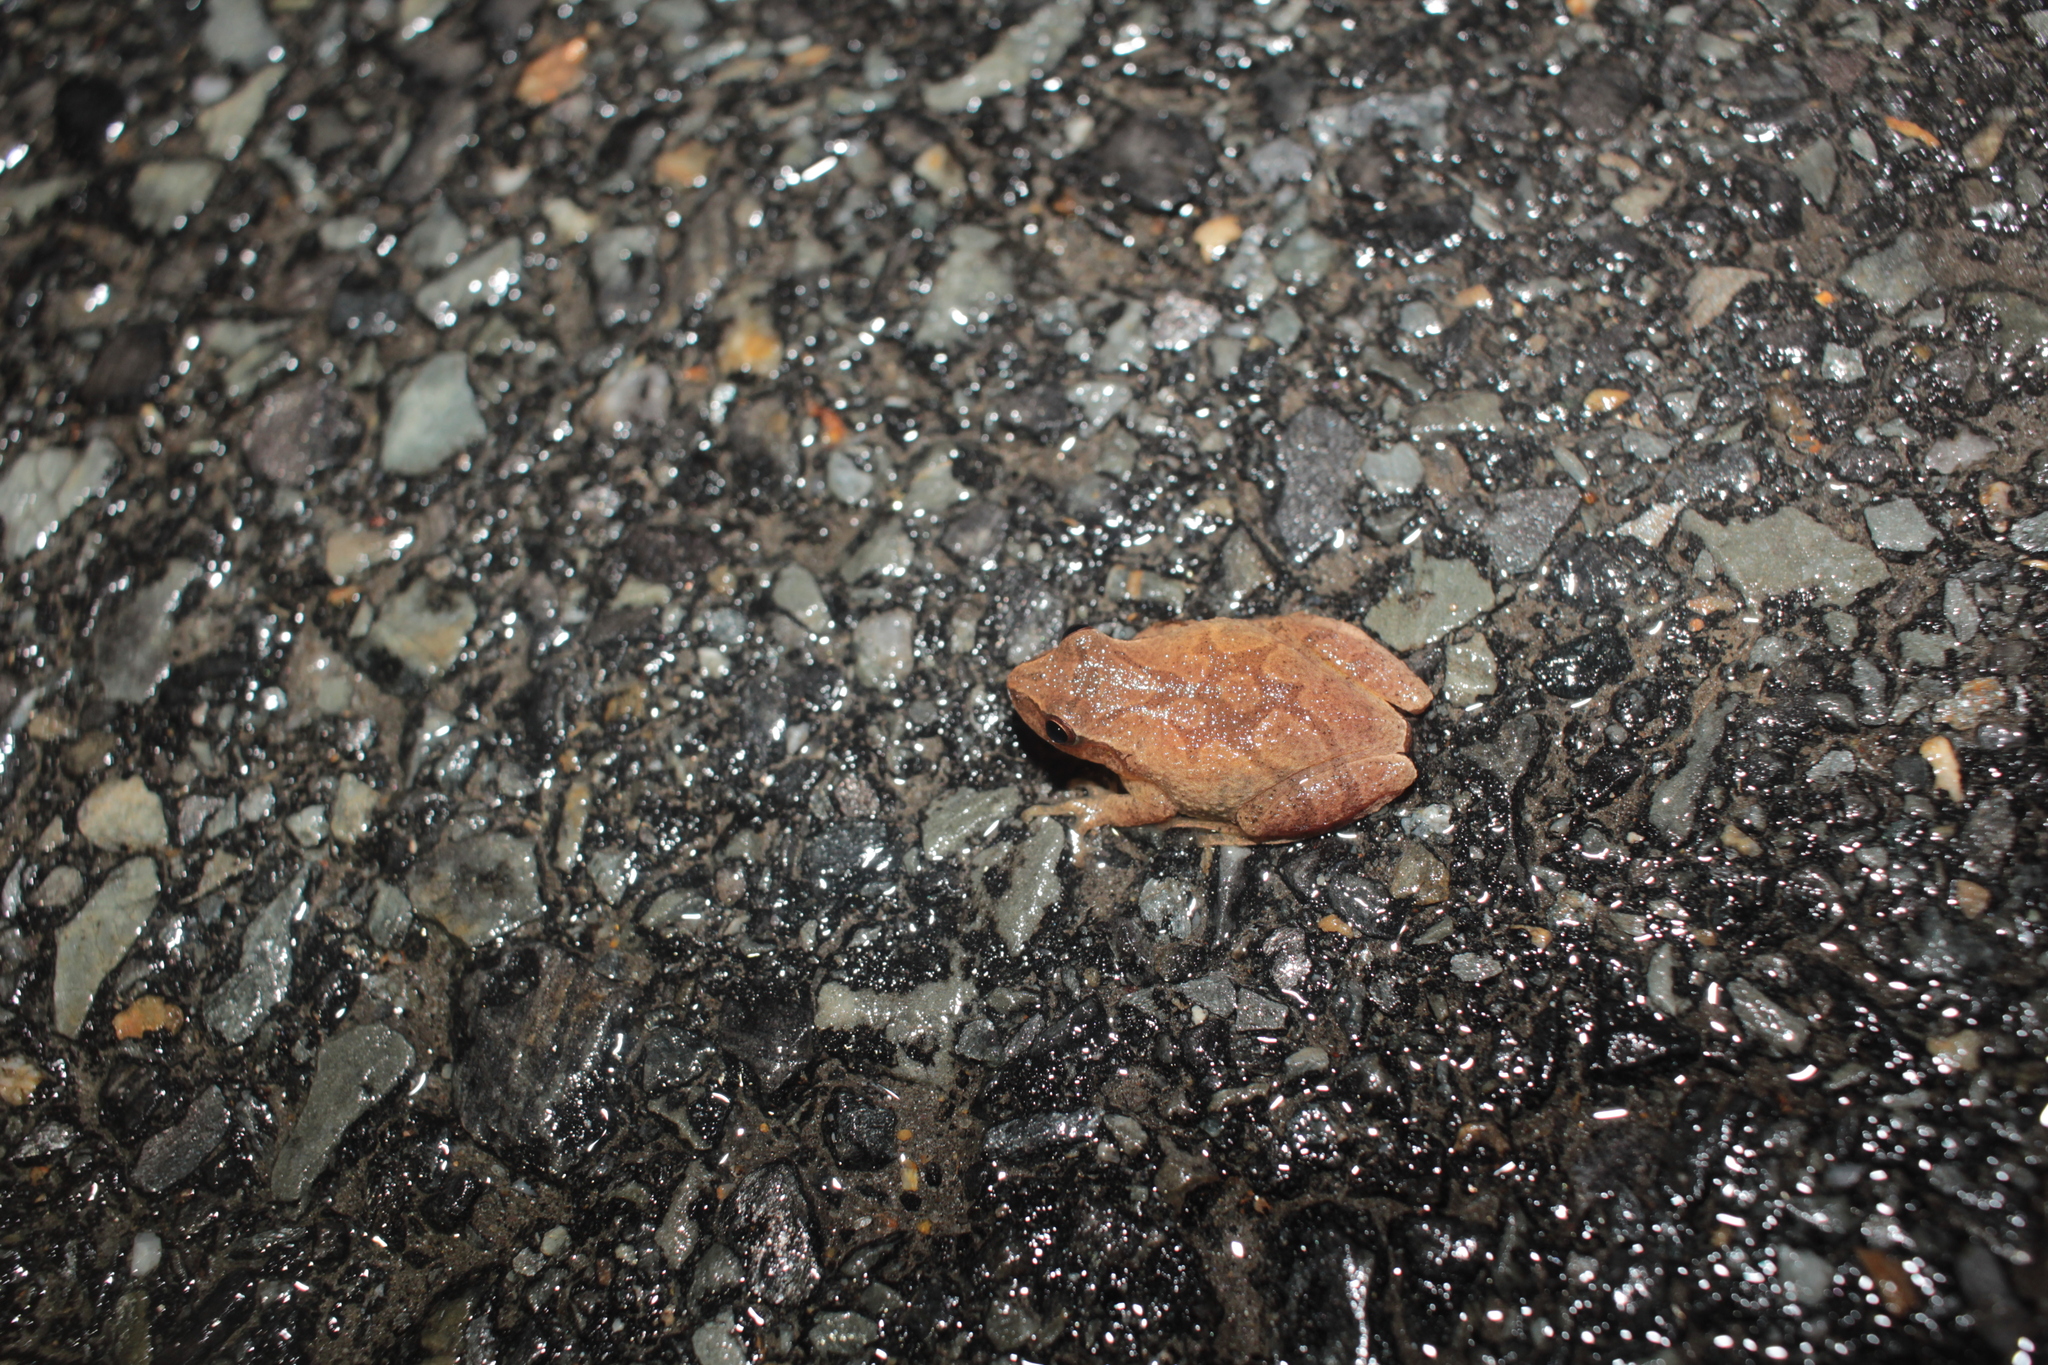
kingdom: Animalia
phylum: Chordata
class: Amphibia
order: Anura
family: Hylidae
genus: Pseudacris
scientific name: Pseudacris crucifer
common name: Spring peeper
